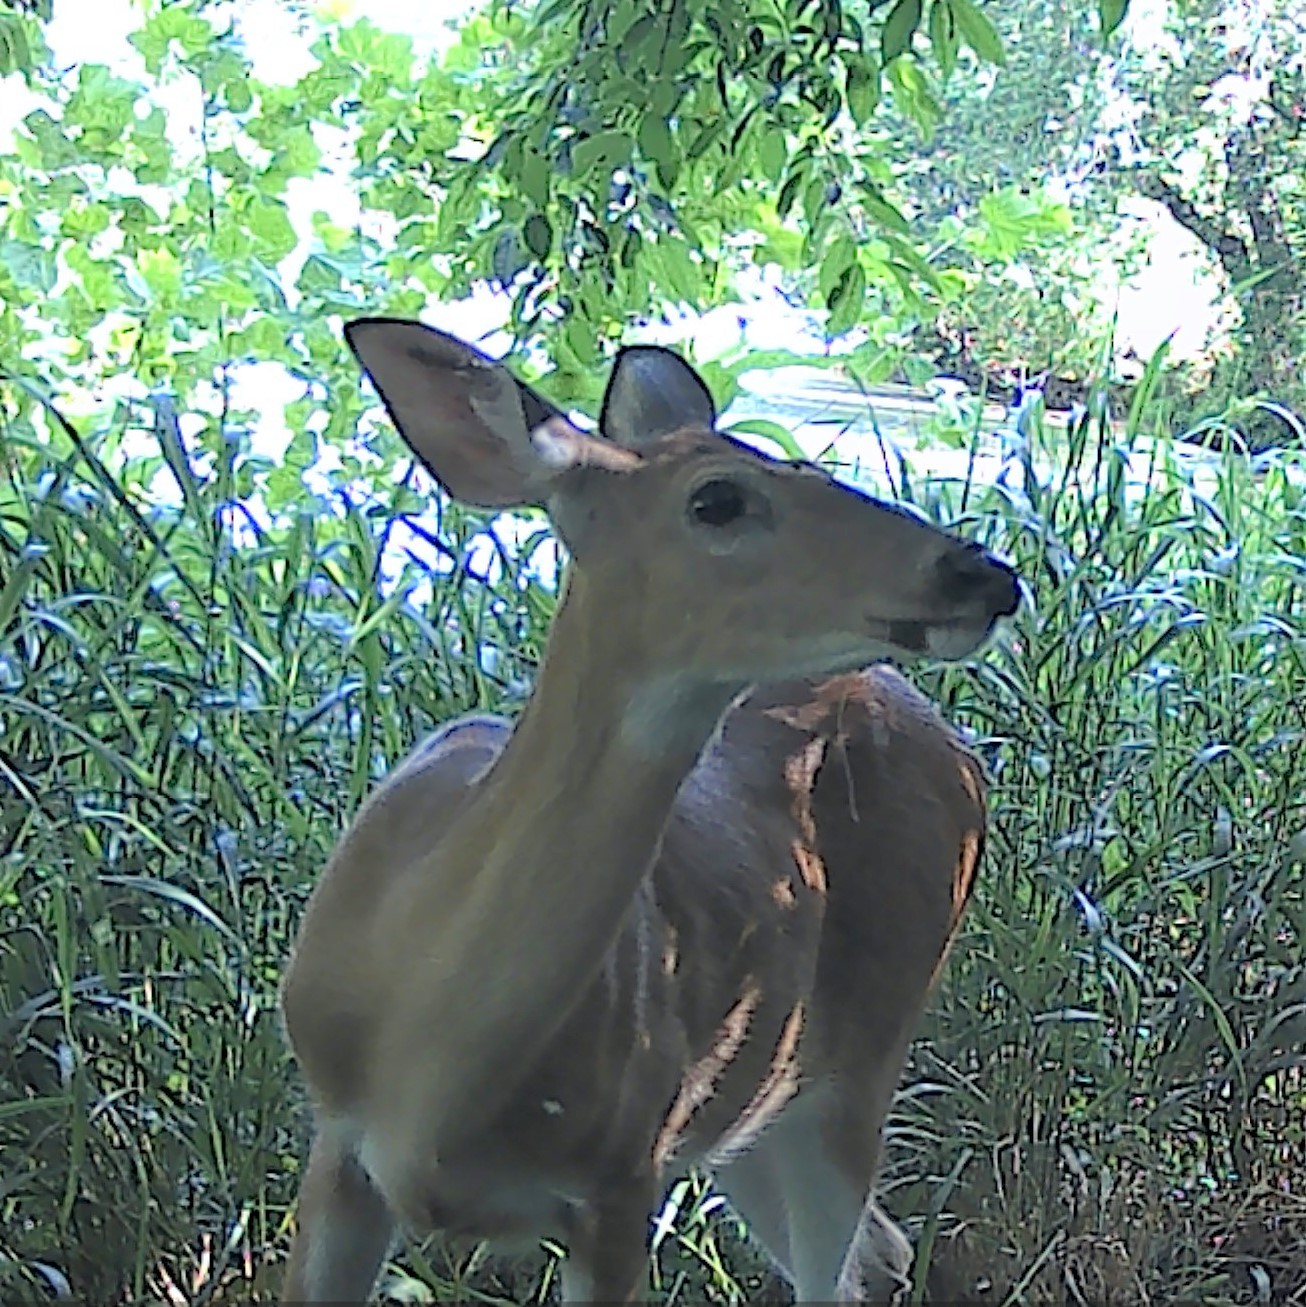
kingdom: Animalia
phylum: Chordata
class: Mammalia
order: Artiodactyla
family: Cervidae
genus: Odocoileus
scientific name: Odocoileus virginianus
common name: White-tailed deer
